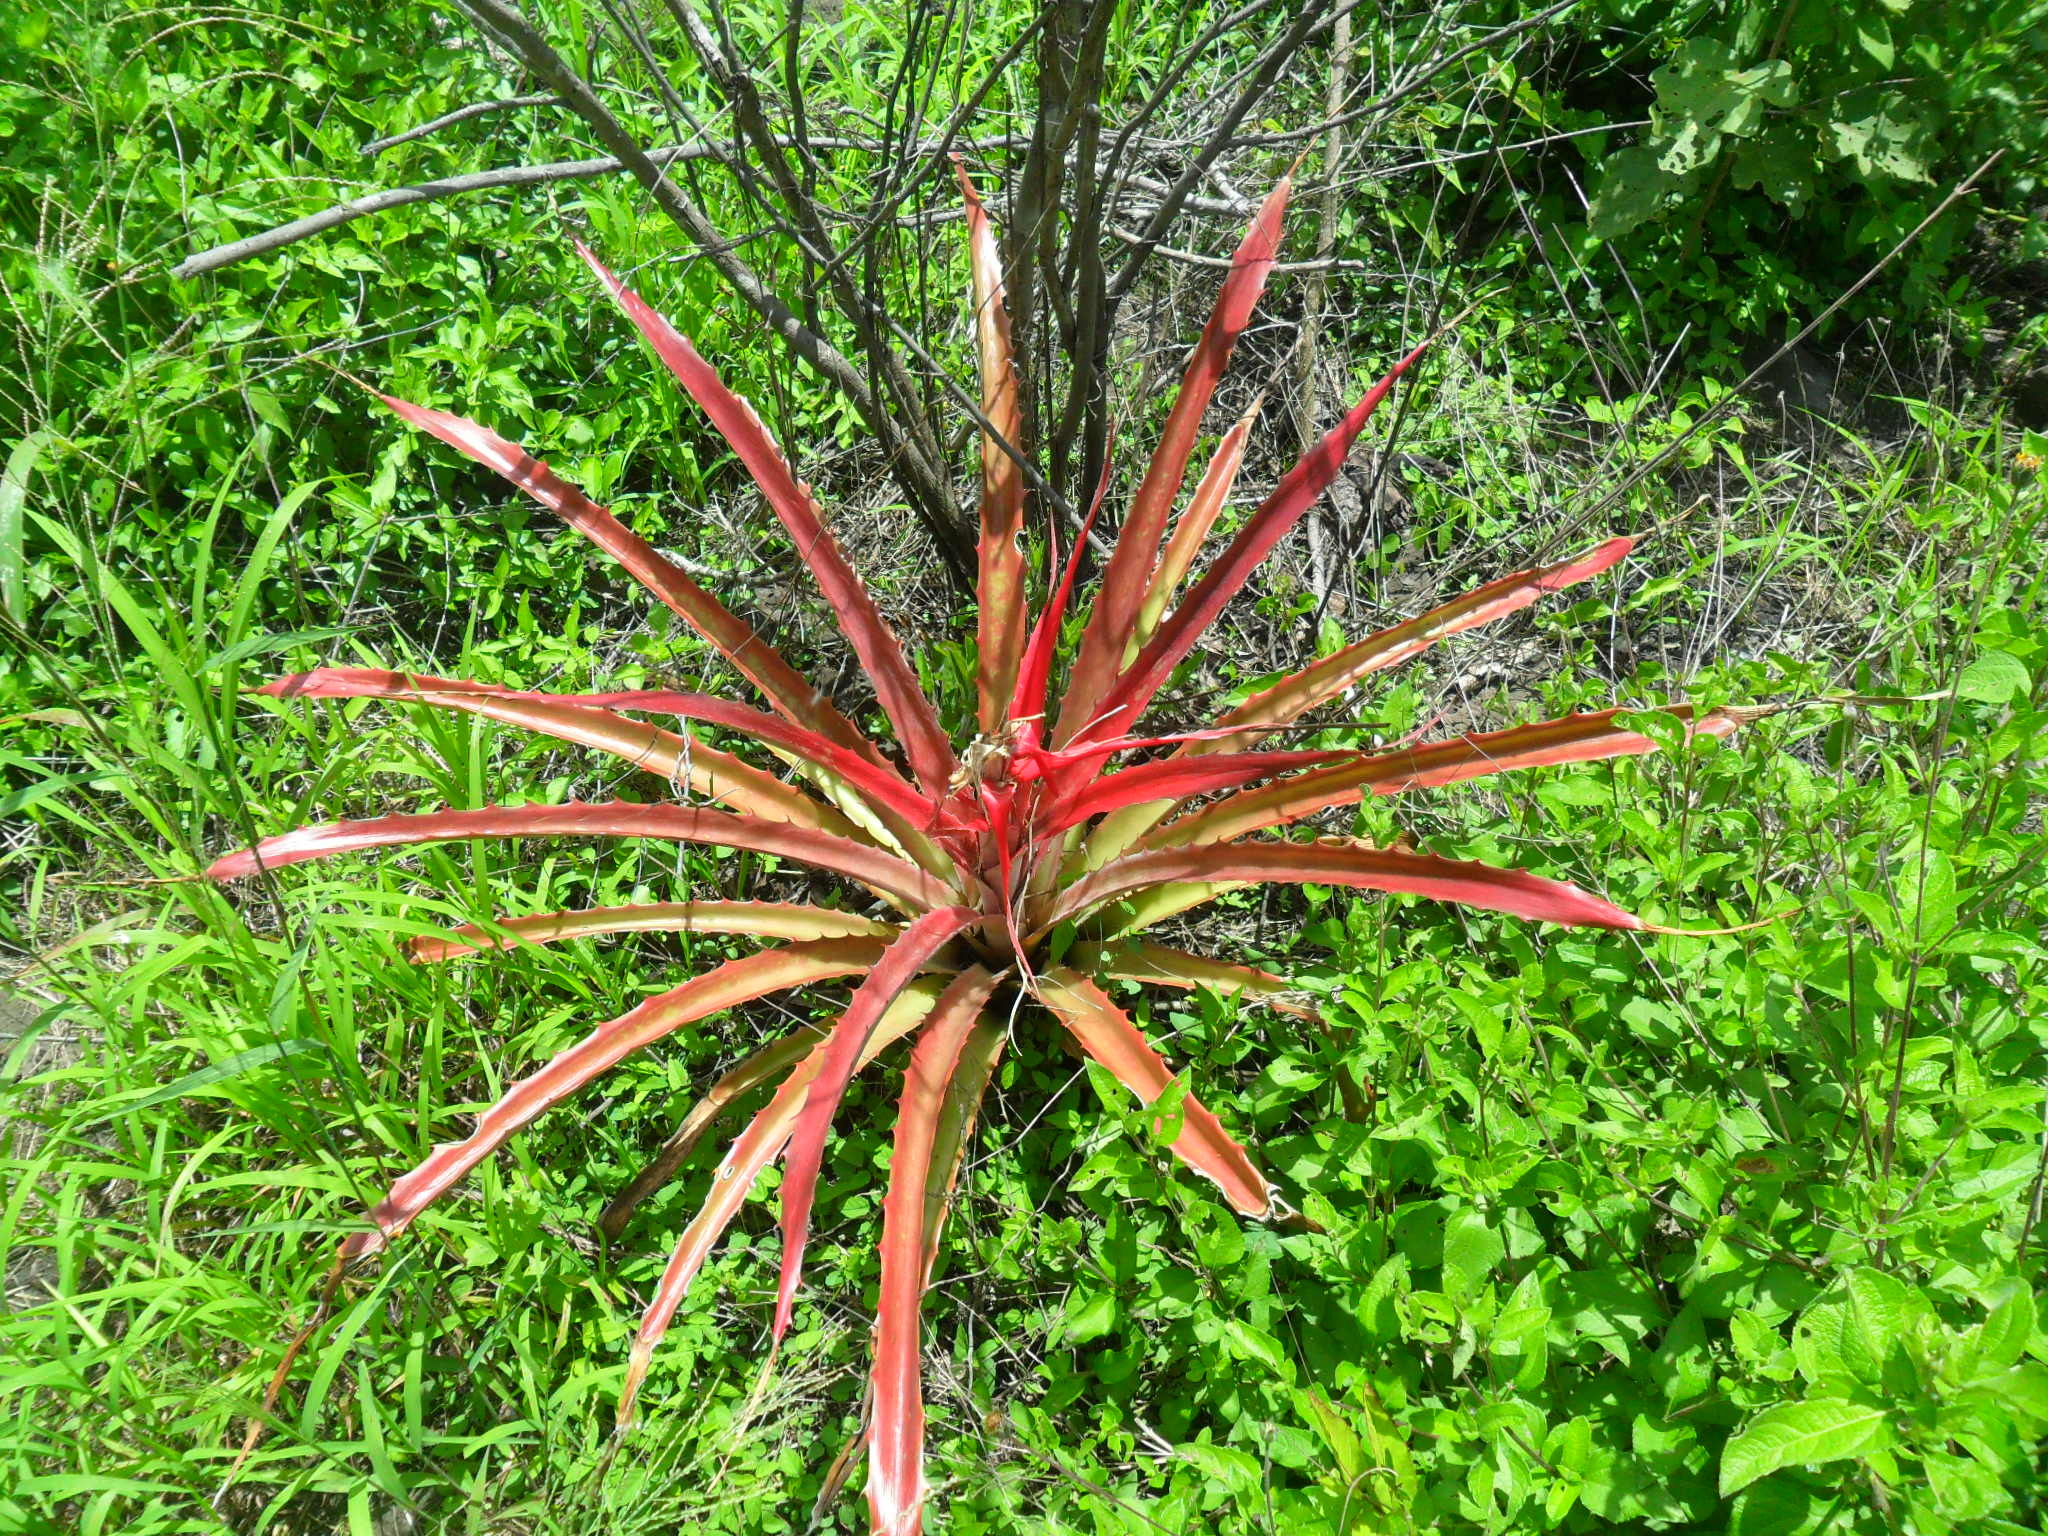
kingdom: Plantae
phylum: Tracheophyta
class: Liliopsida
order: Poales
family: Bromeliaceae
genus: Bromelia
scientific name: Bromelia pinguin
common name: Pinguin
